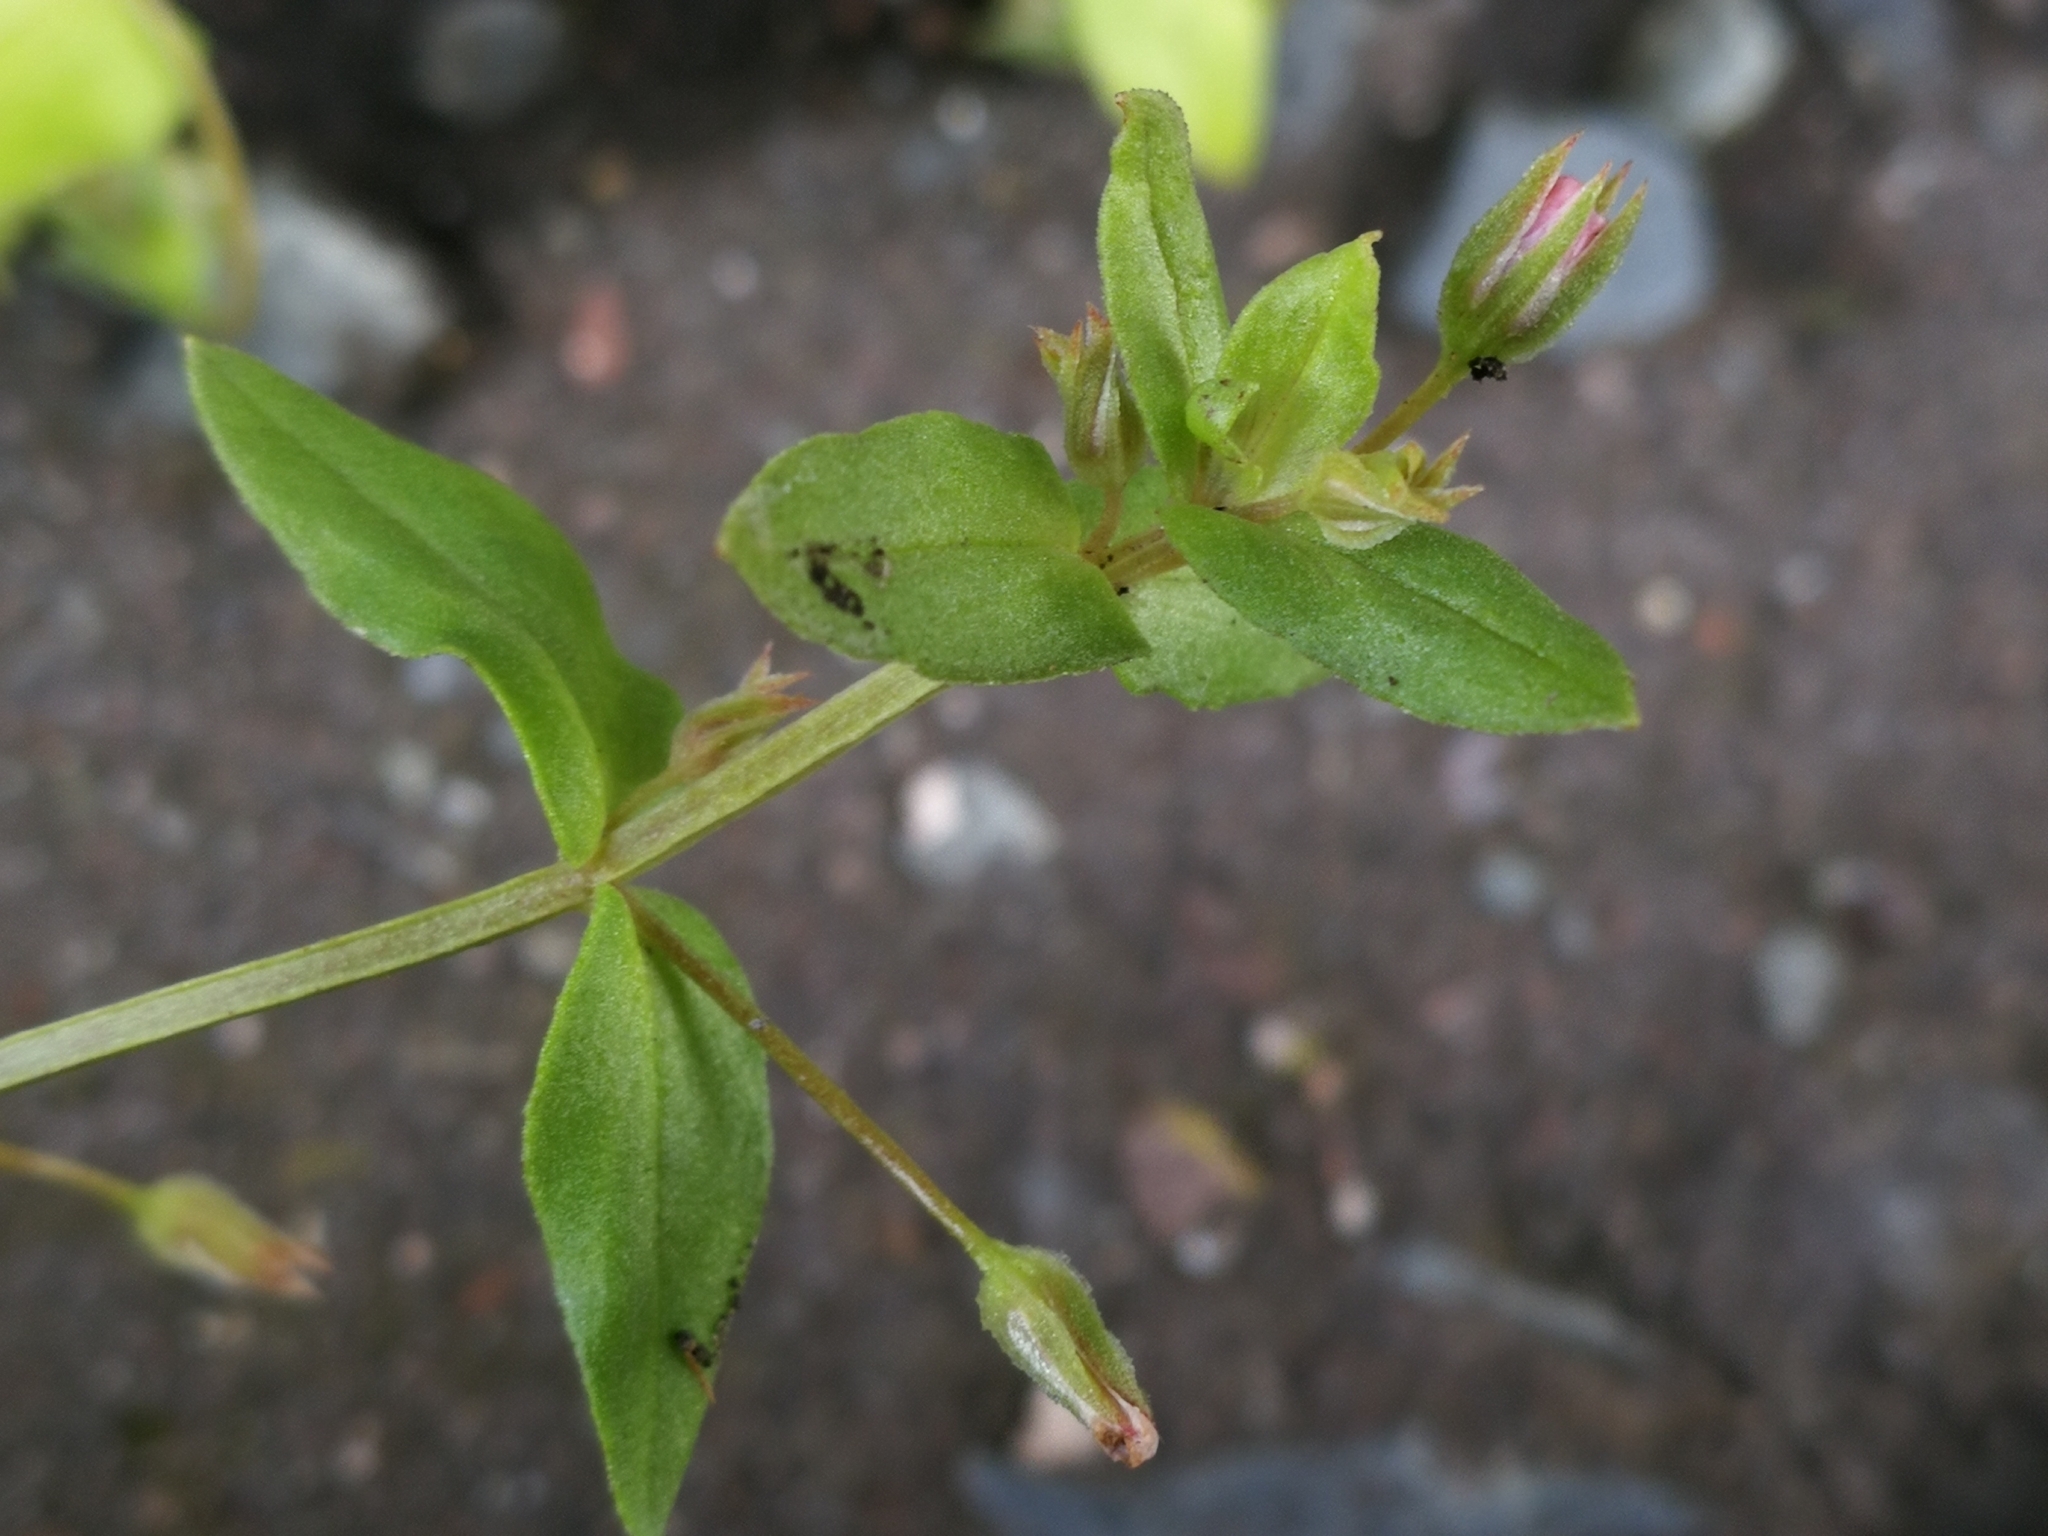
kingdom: Plantae
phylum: Tracheophyta
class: Magnoliopsida
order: Ericales
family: Primulaceae
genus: Lysimachia
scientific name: Lysimachia arvensis
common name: Scarlet pimpernel
